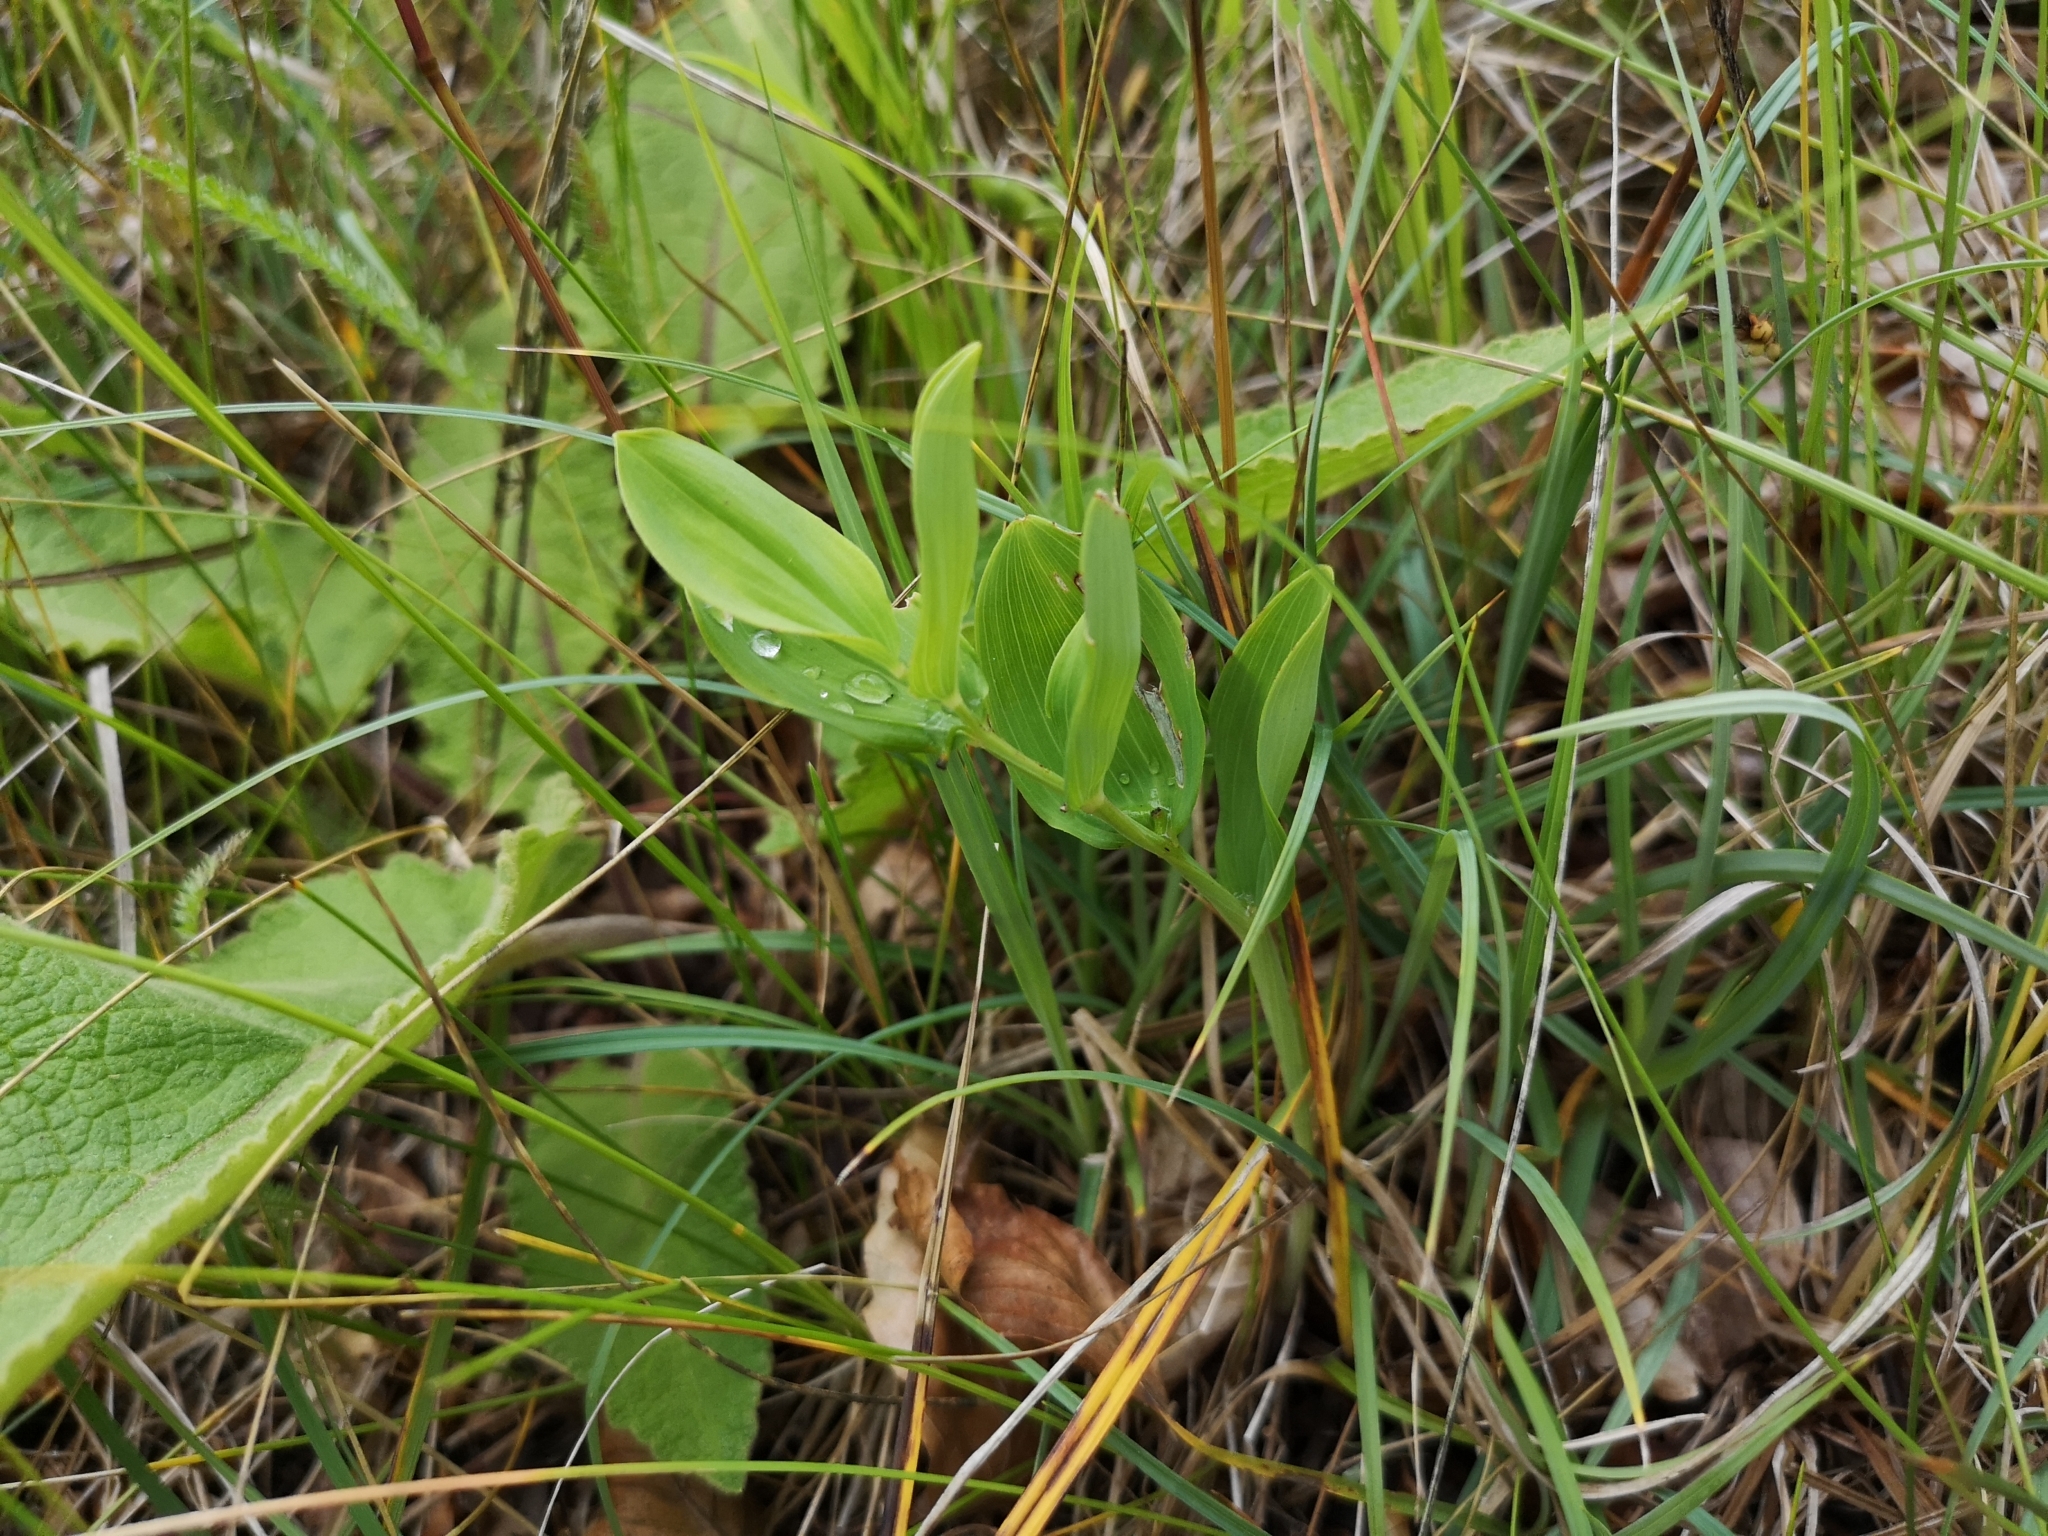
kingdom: Plantae
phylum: Tracheophyta
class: Liliopsida
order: Asparagales
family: Asparagaceae
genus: Polygonatum
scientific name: Polygonatum odoratum
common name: Angular solomon's-seal
